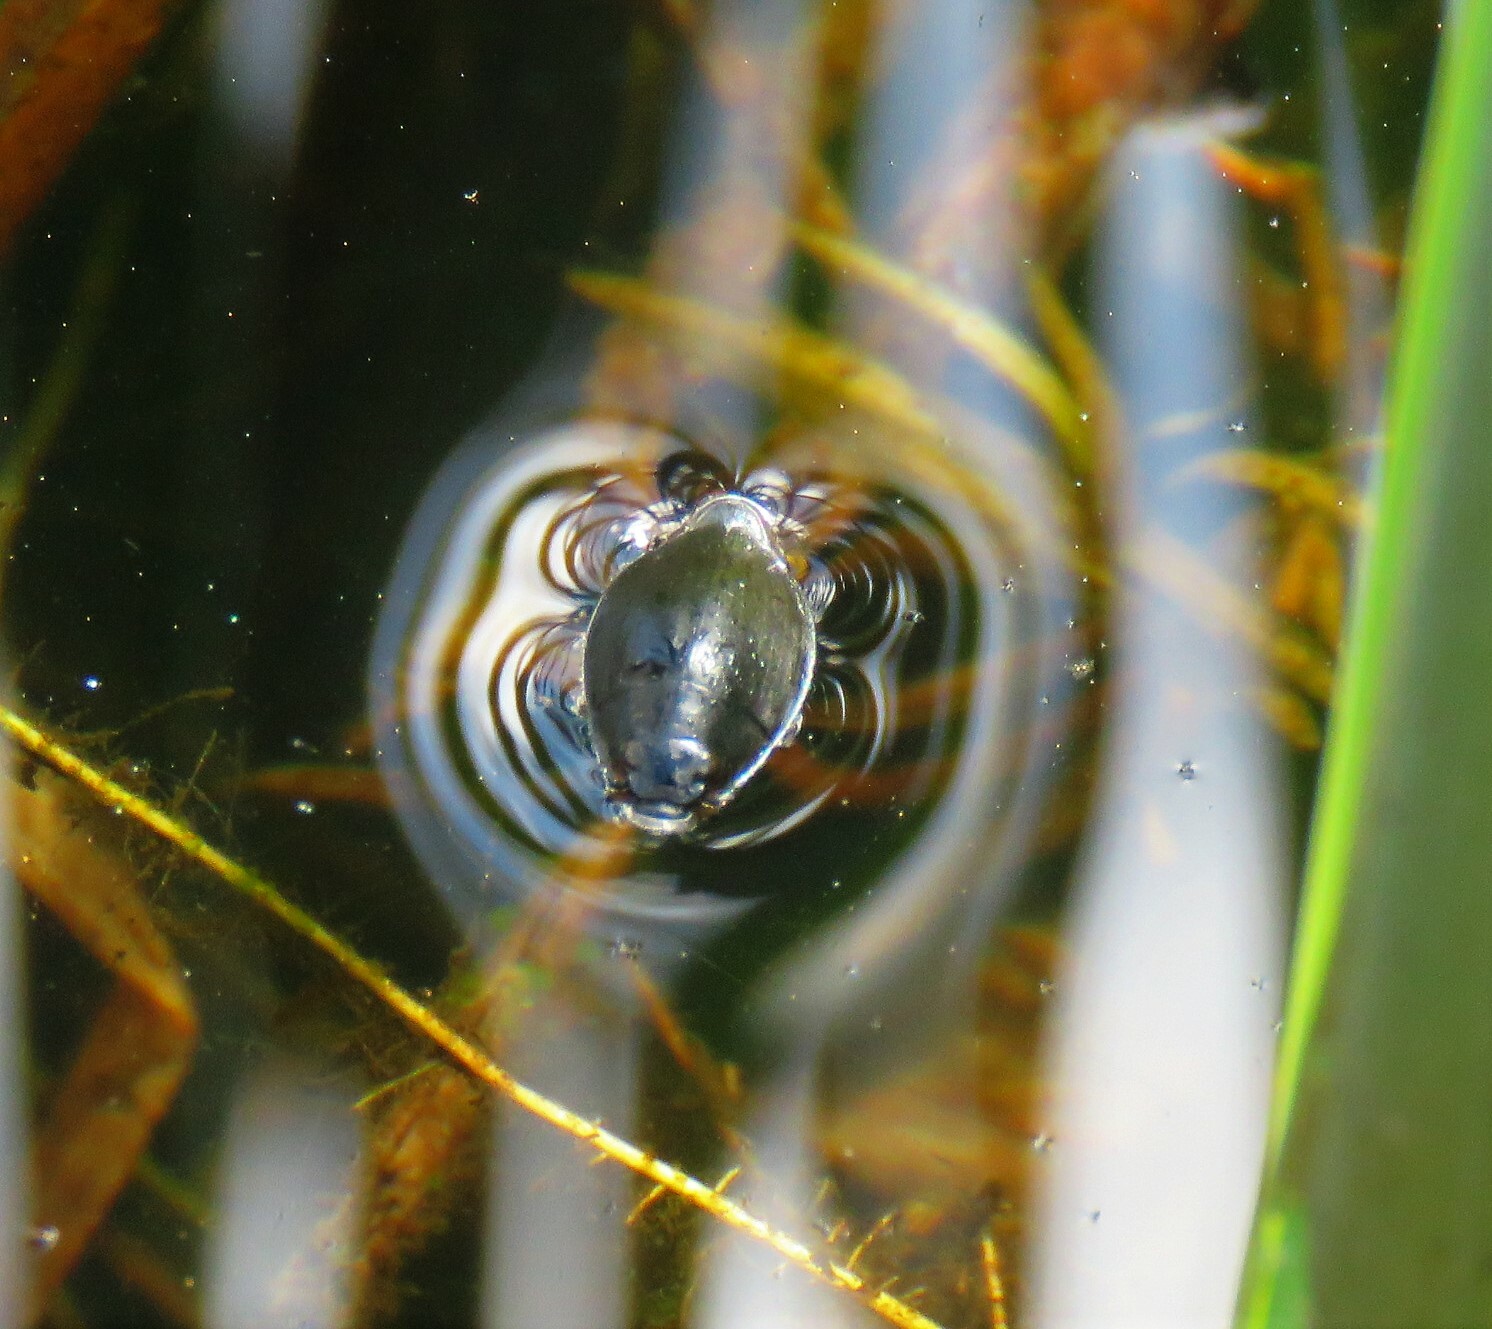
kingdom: Animalia
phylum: Arthropoda
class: Insecta
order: Coleoptera
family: Gyrinidae
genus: Dineutus
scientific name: Dineutus
